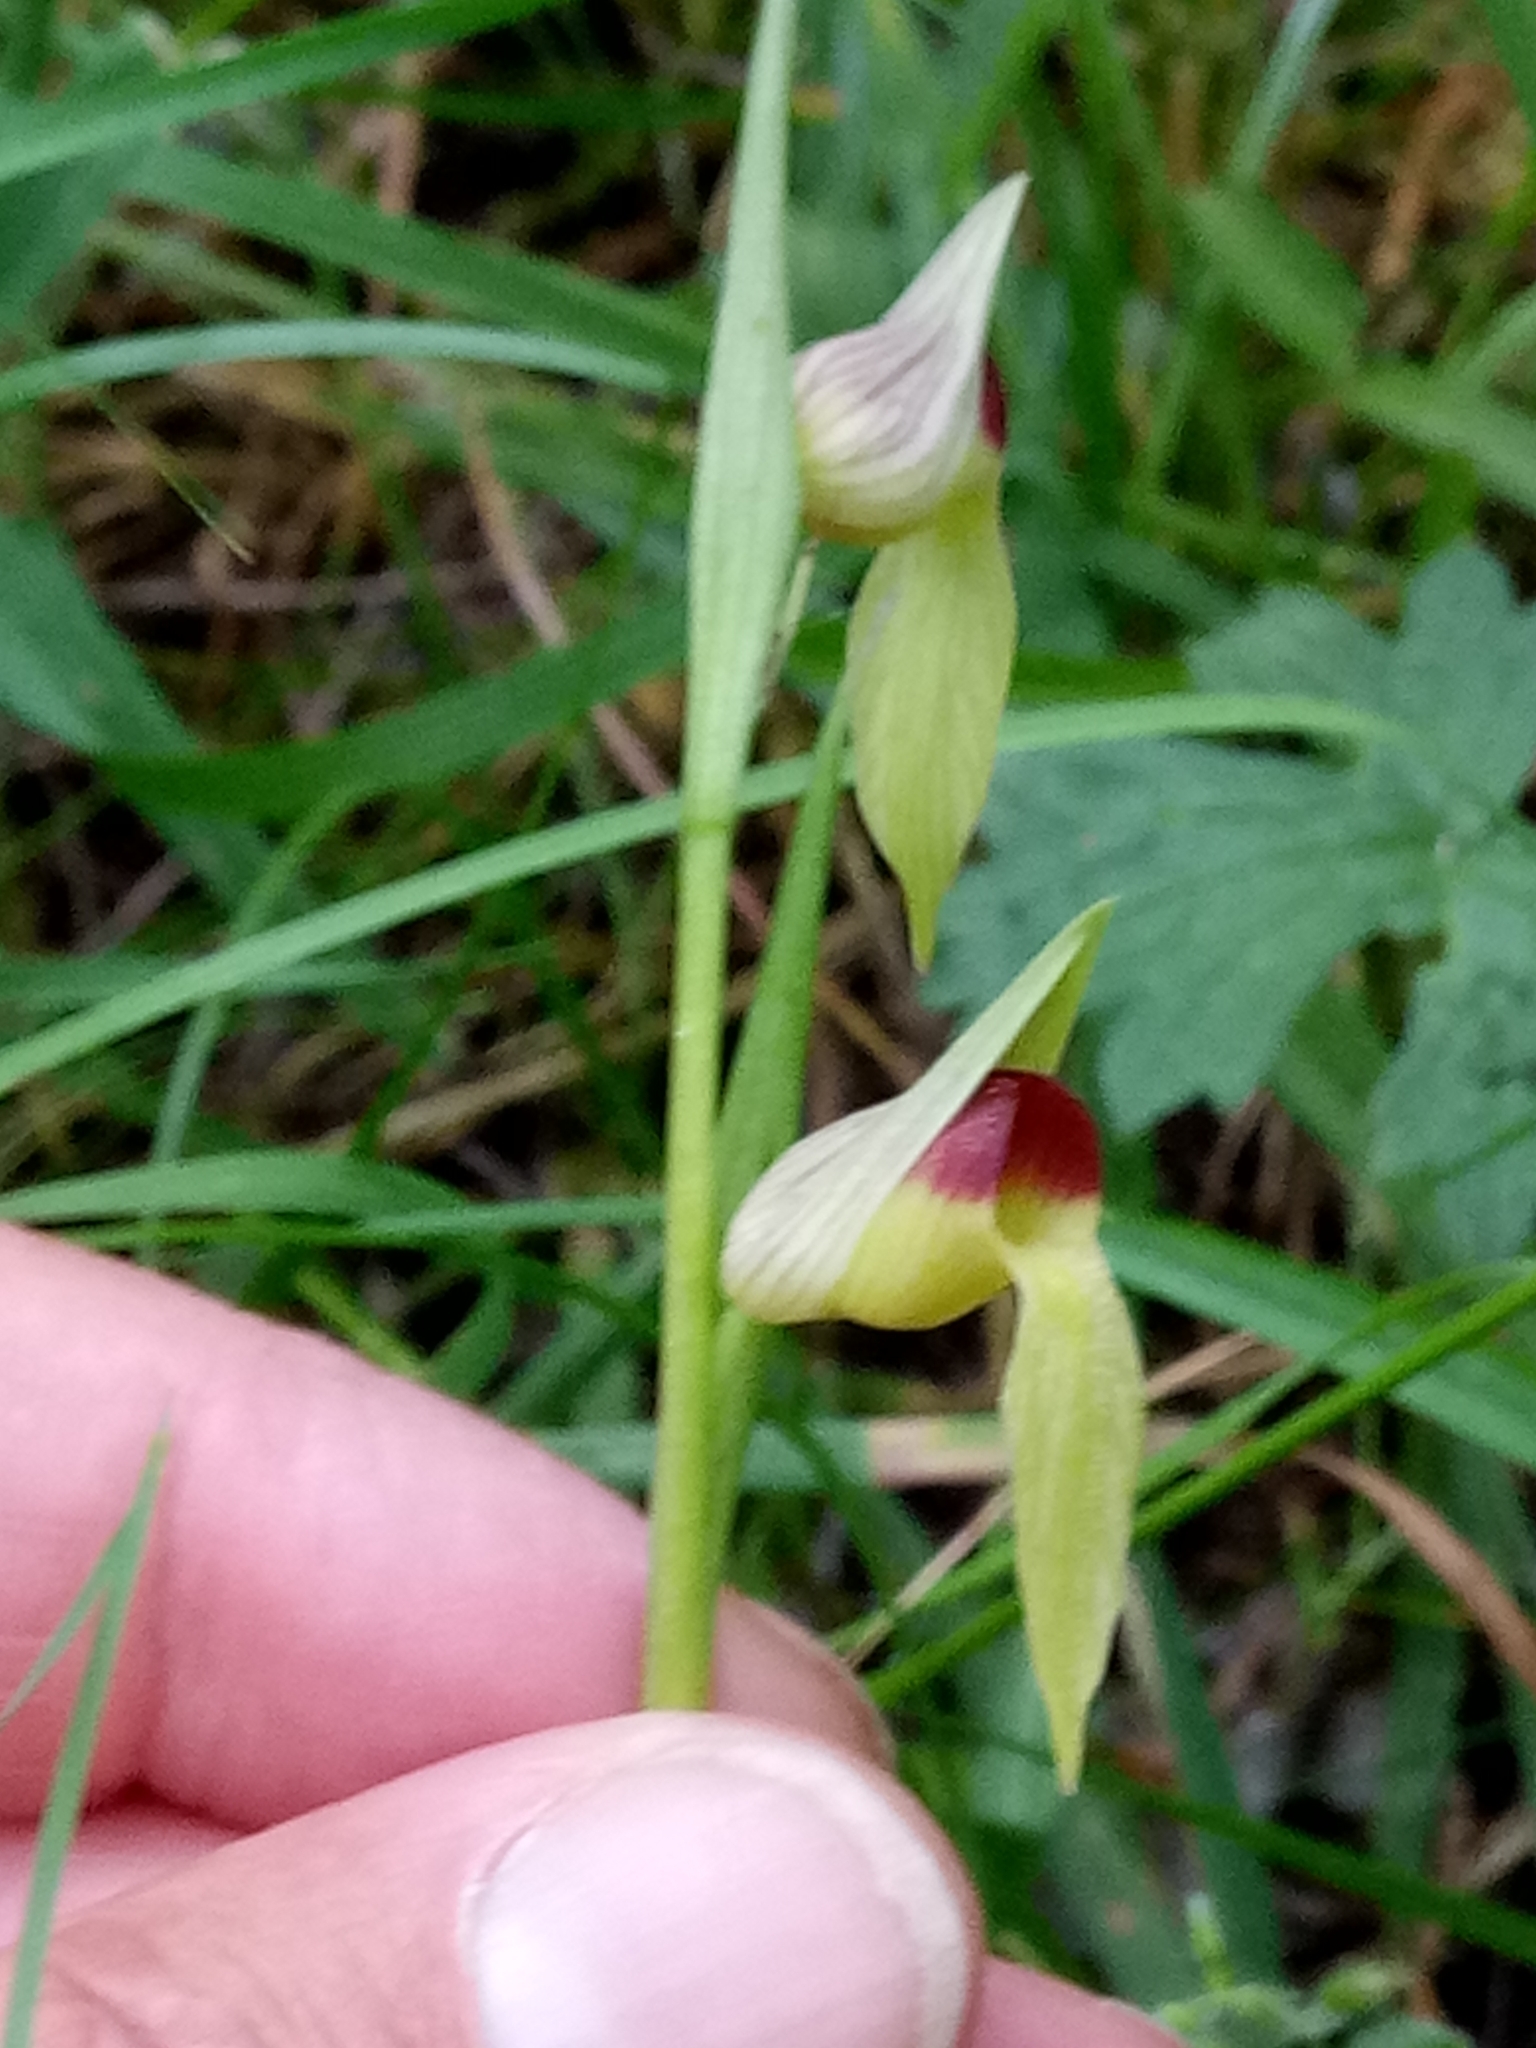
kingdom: Plantae
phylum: Tracheophyta
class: Liliopsida
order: Asparagales
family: Orchidaceae
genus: Serapias
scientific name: Serapias lingua
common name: Tongue-orchid
